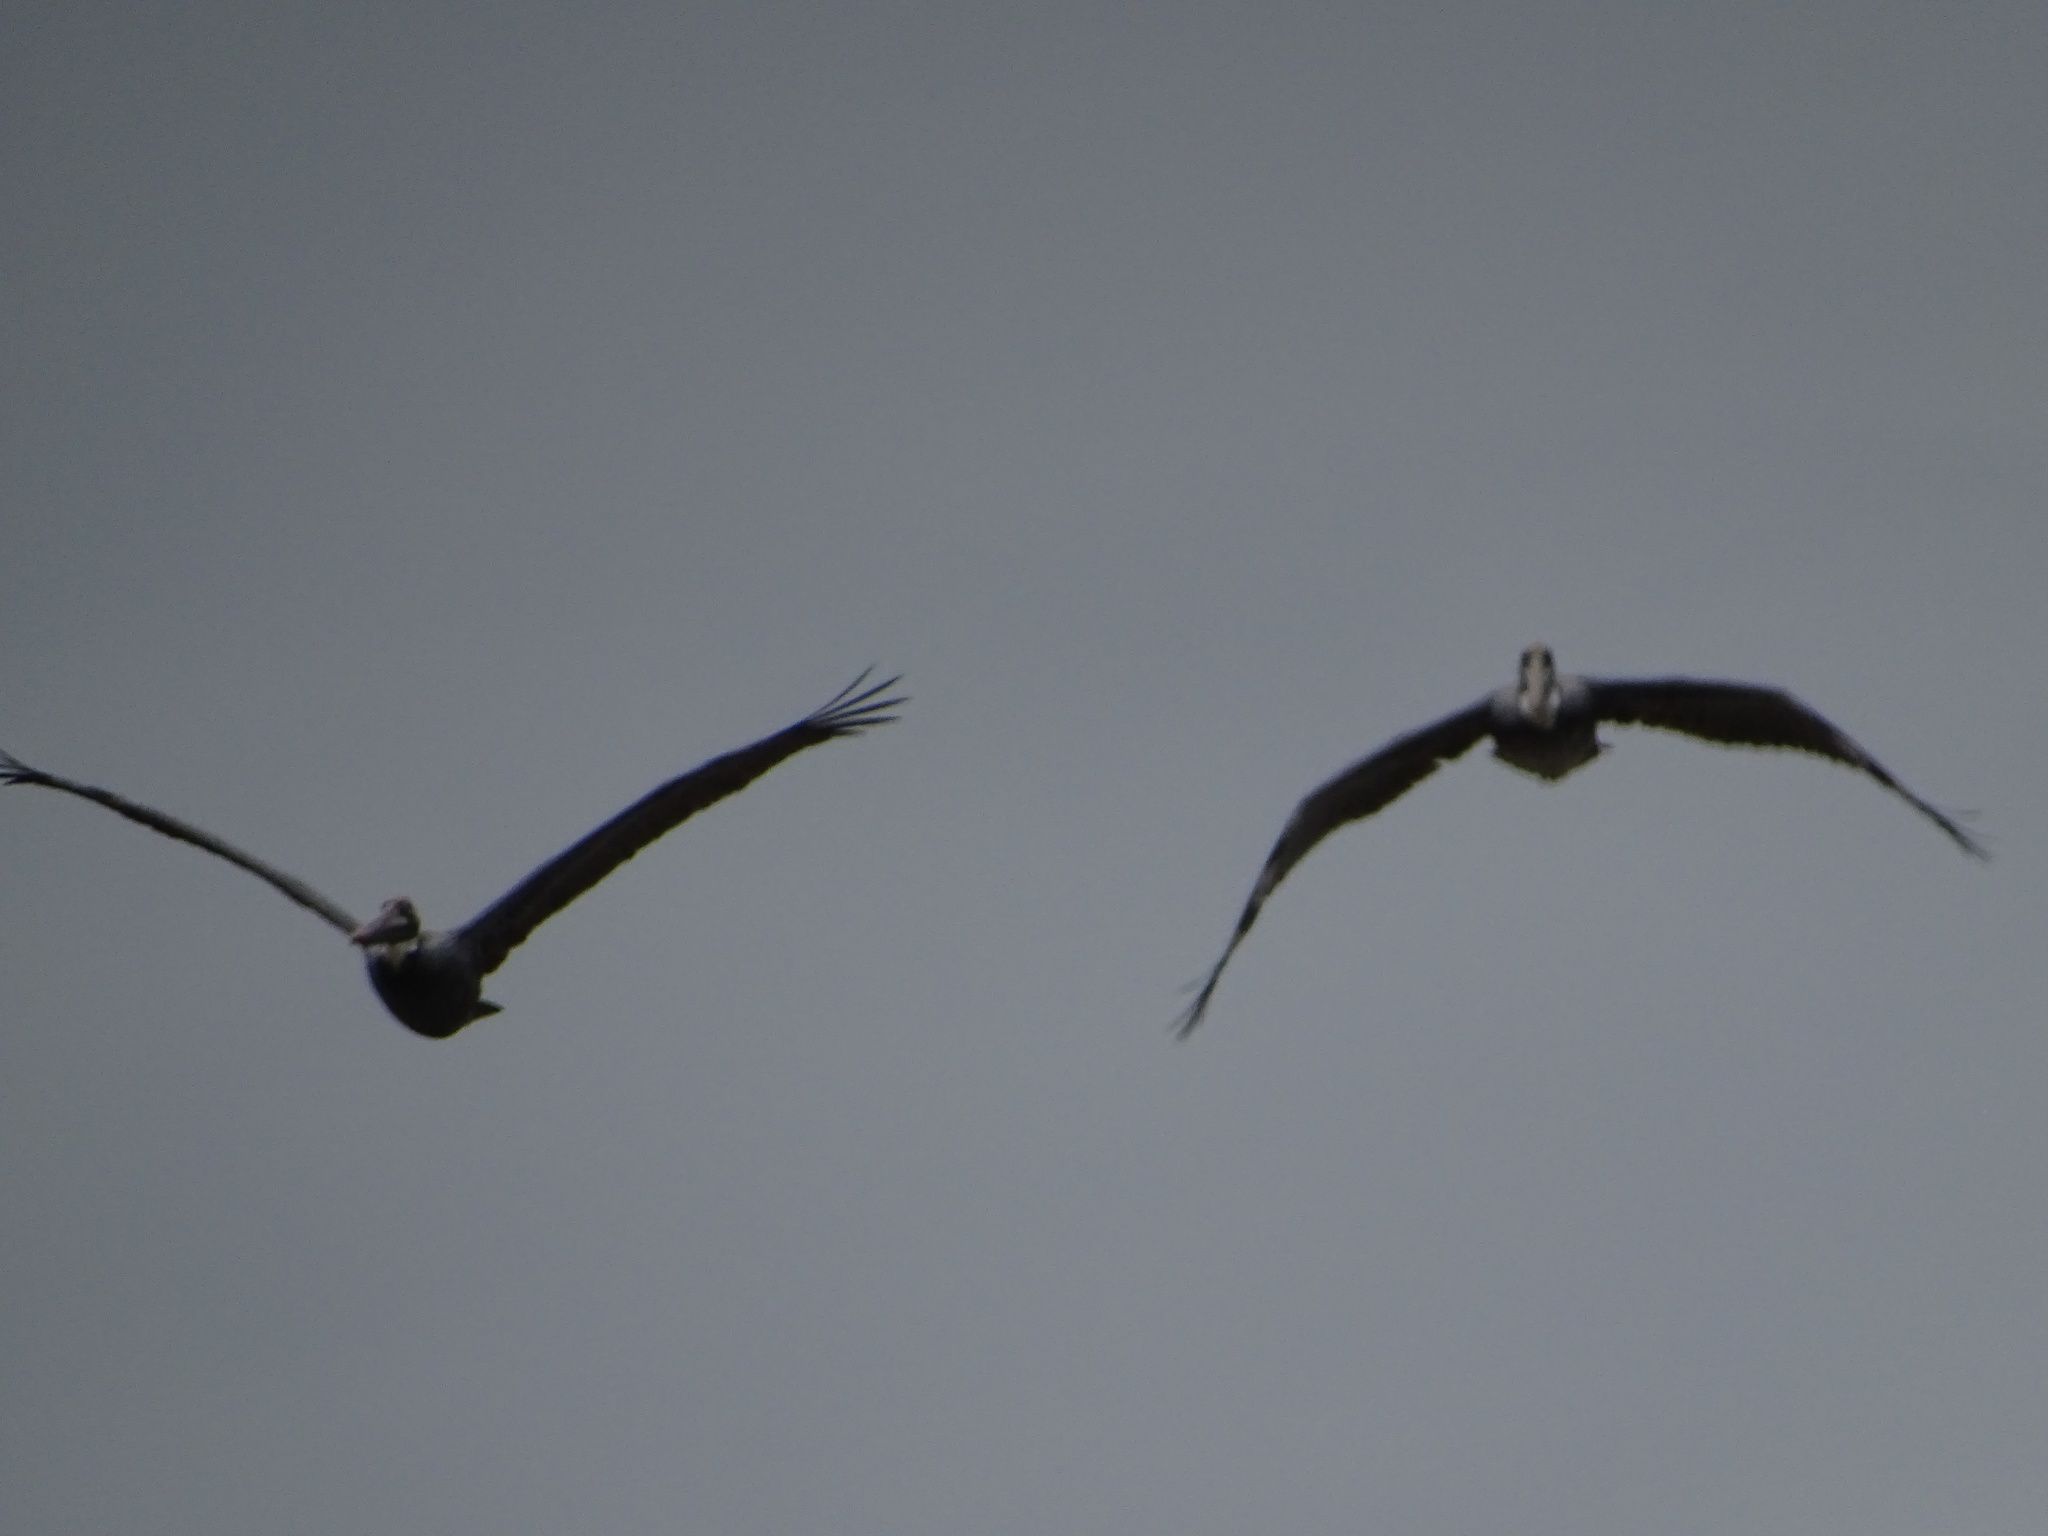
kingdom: Animalia
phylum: Chordata
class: Aves
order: Pelecaniformes
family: Pelecanidae
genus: Pelecanus
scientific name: Pelecanus occidentalis
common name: Brown pelican
